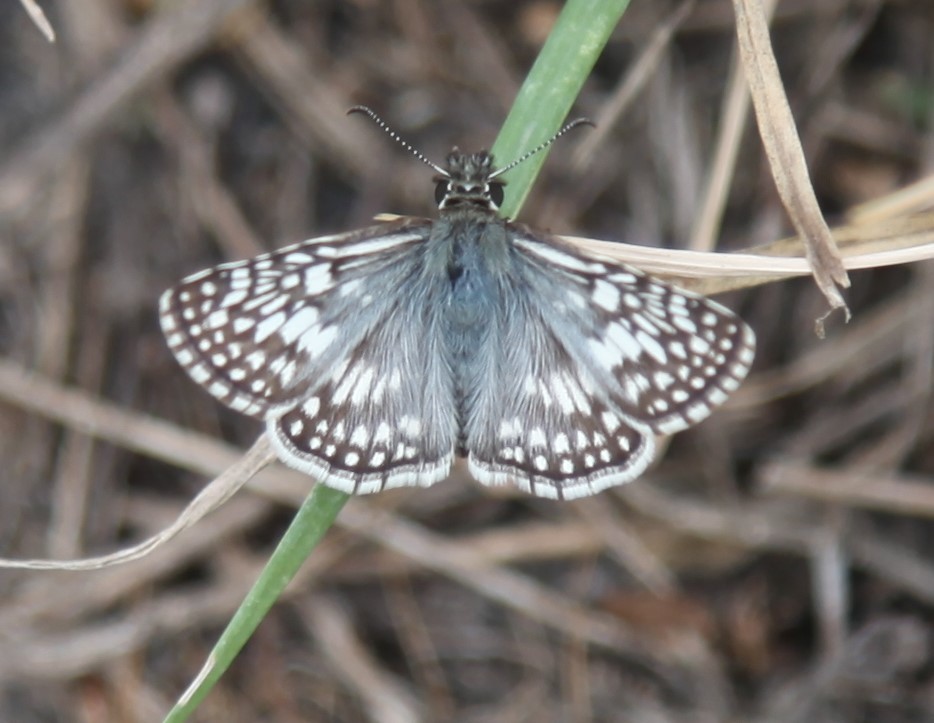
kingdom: Animalia
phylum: Arthropoda
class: Insecta
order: Lepidoptera
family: Hesperiidae
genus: Burnsius
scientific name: Burnsius philetas
